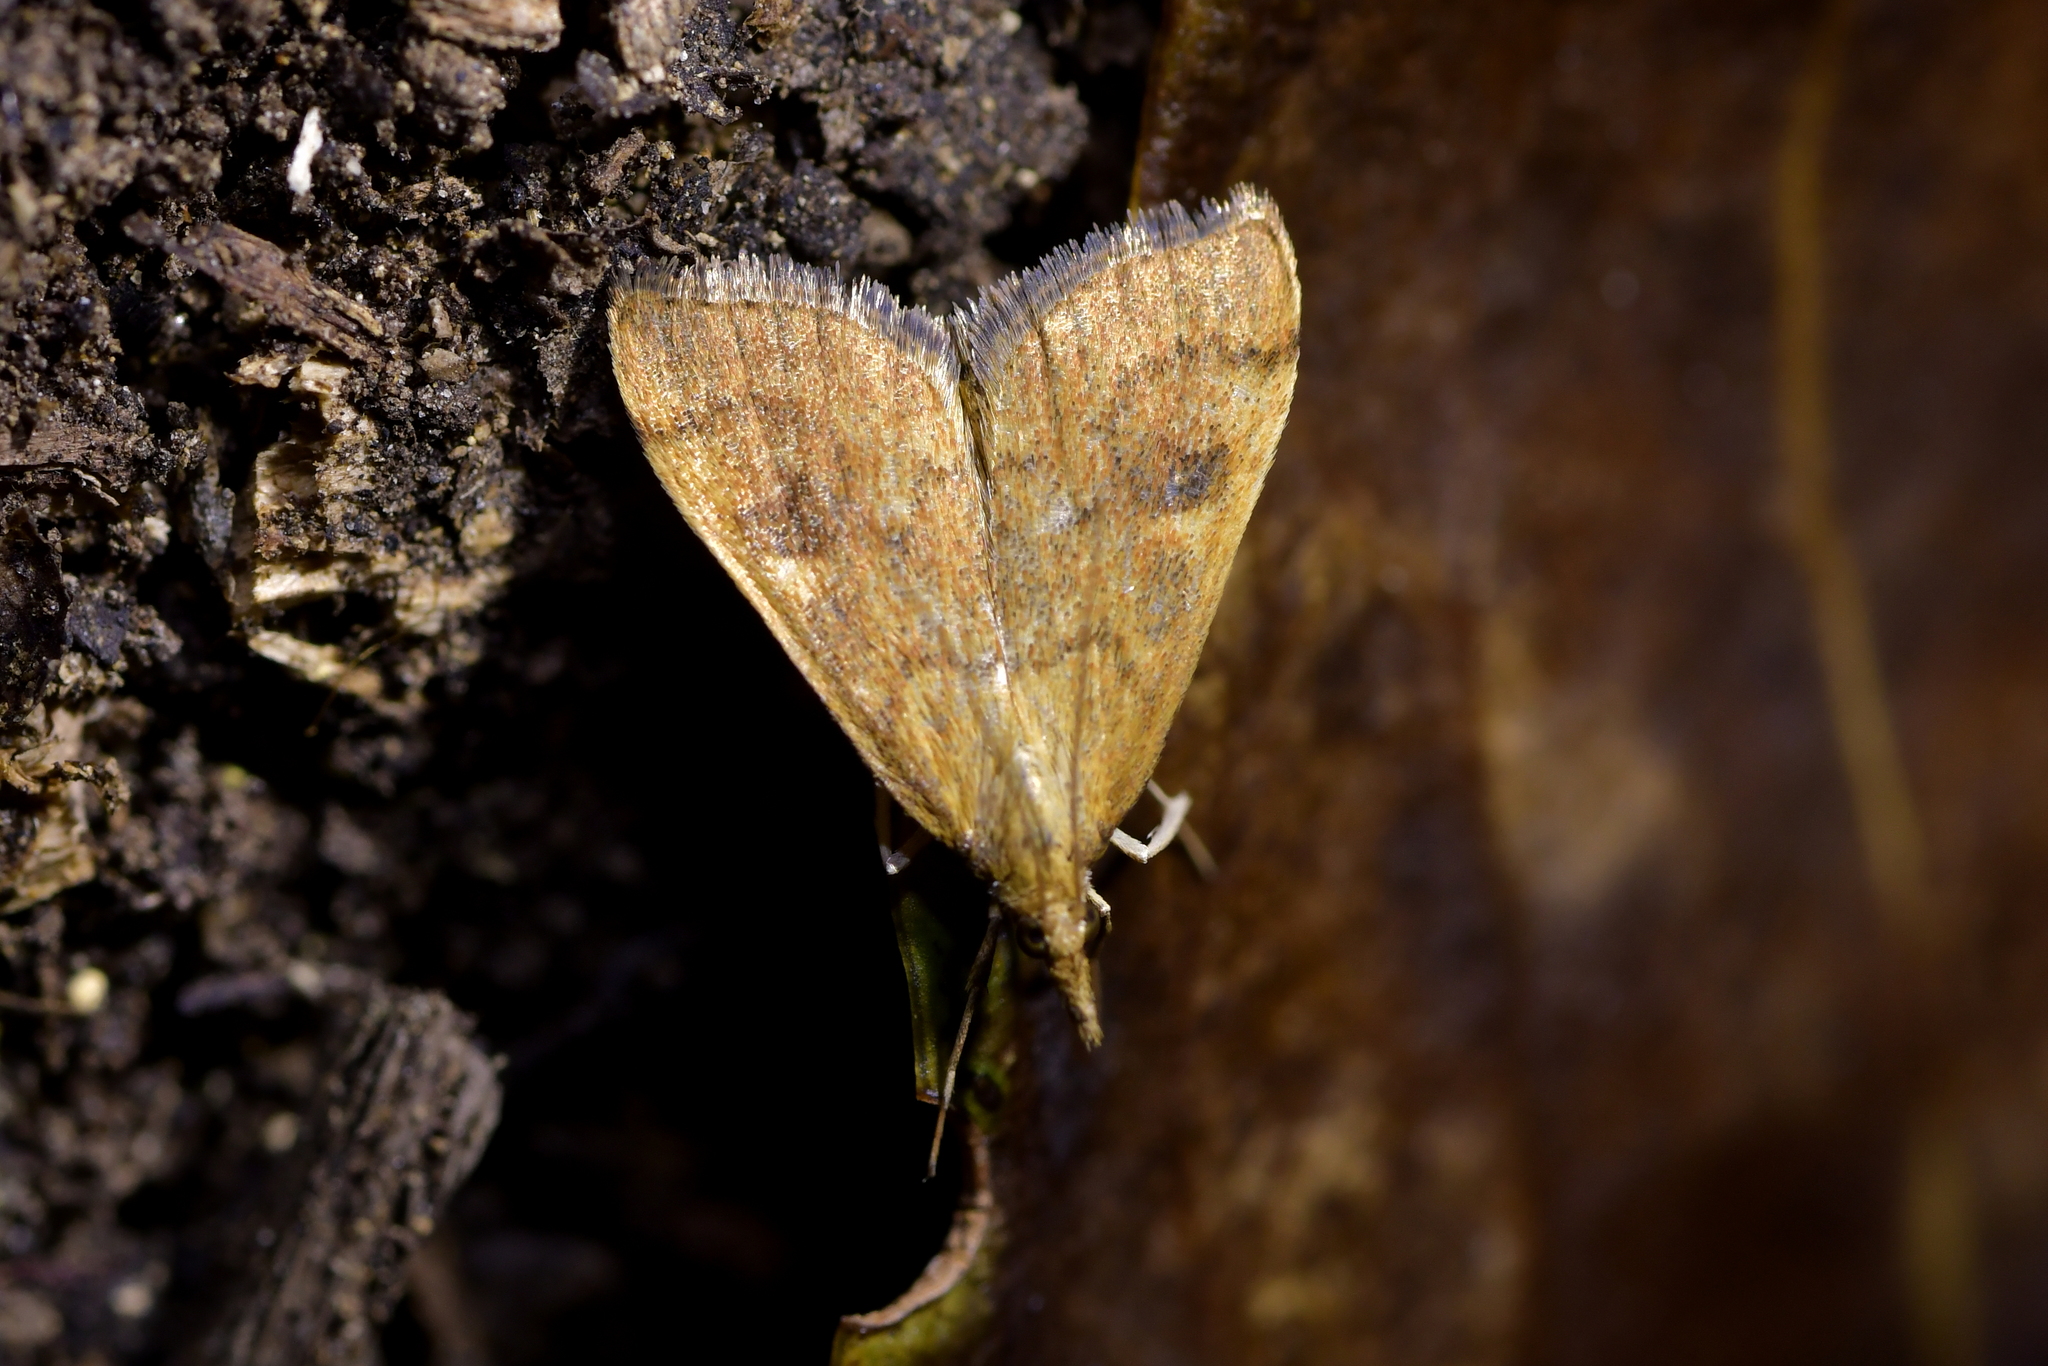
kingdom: Animalia
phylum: Arthropoda
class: Insecta
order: Lepidoptera
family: Crambidae
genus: Udea
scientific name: Udea Mnesictena flavidalis
